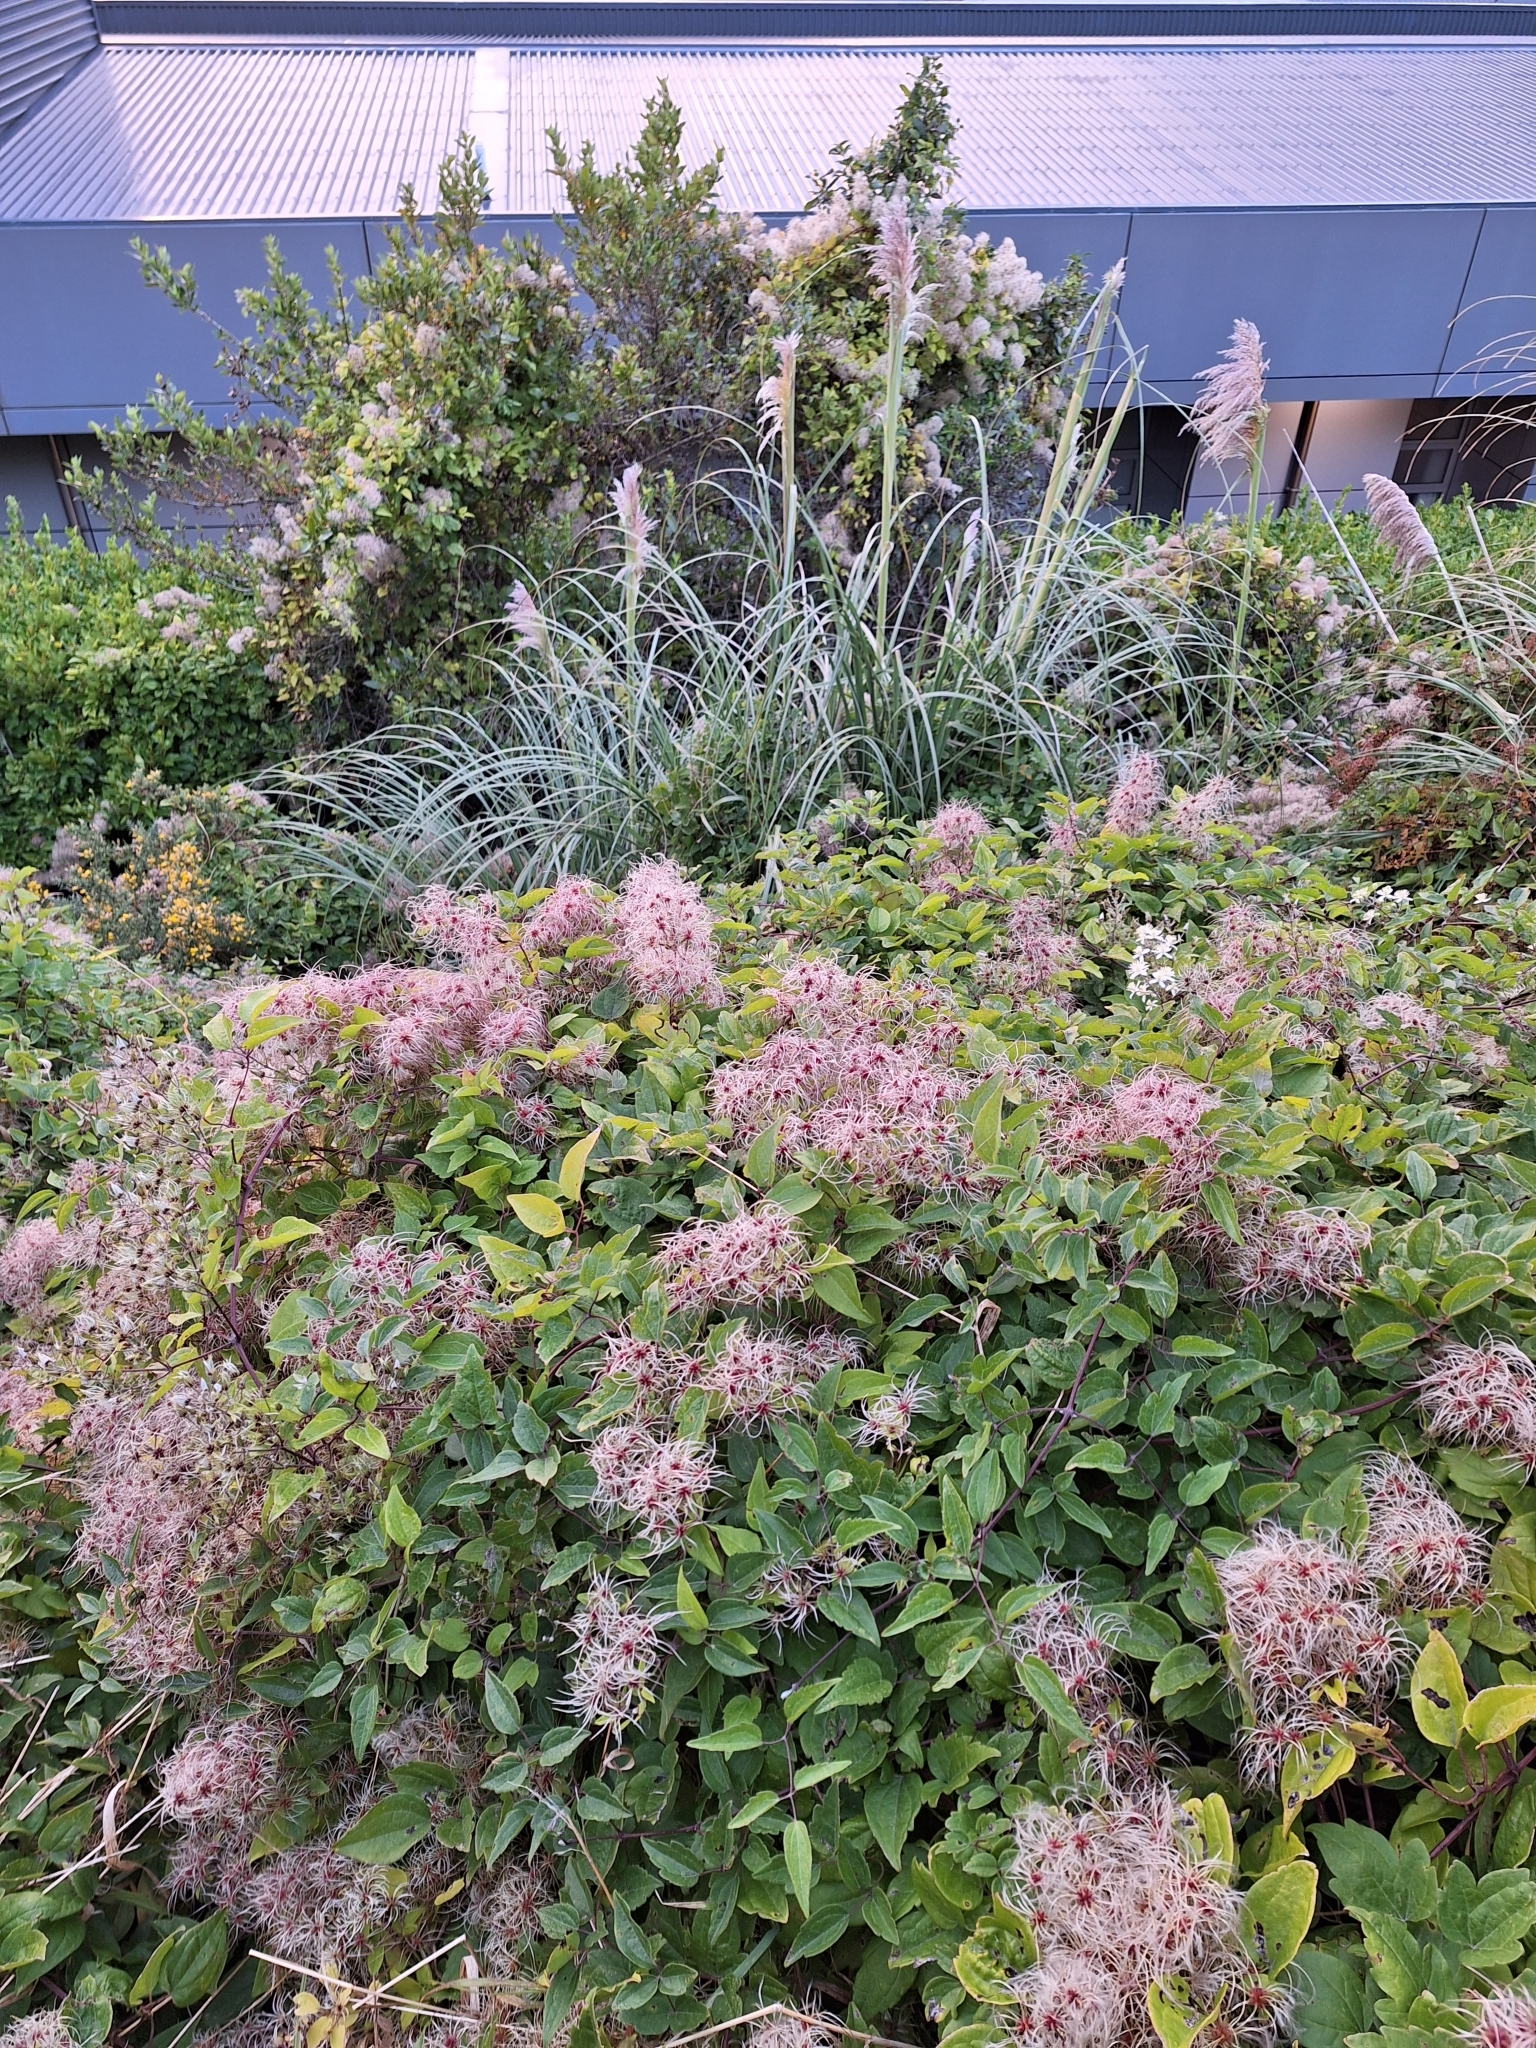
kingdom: Plantae
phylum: Tracheophyta
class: Magnoliopsida
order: Ranunculales
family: Ranunculaceae
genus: Clematis
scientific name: Clematis vitalba
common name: Evergreen clematis
